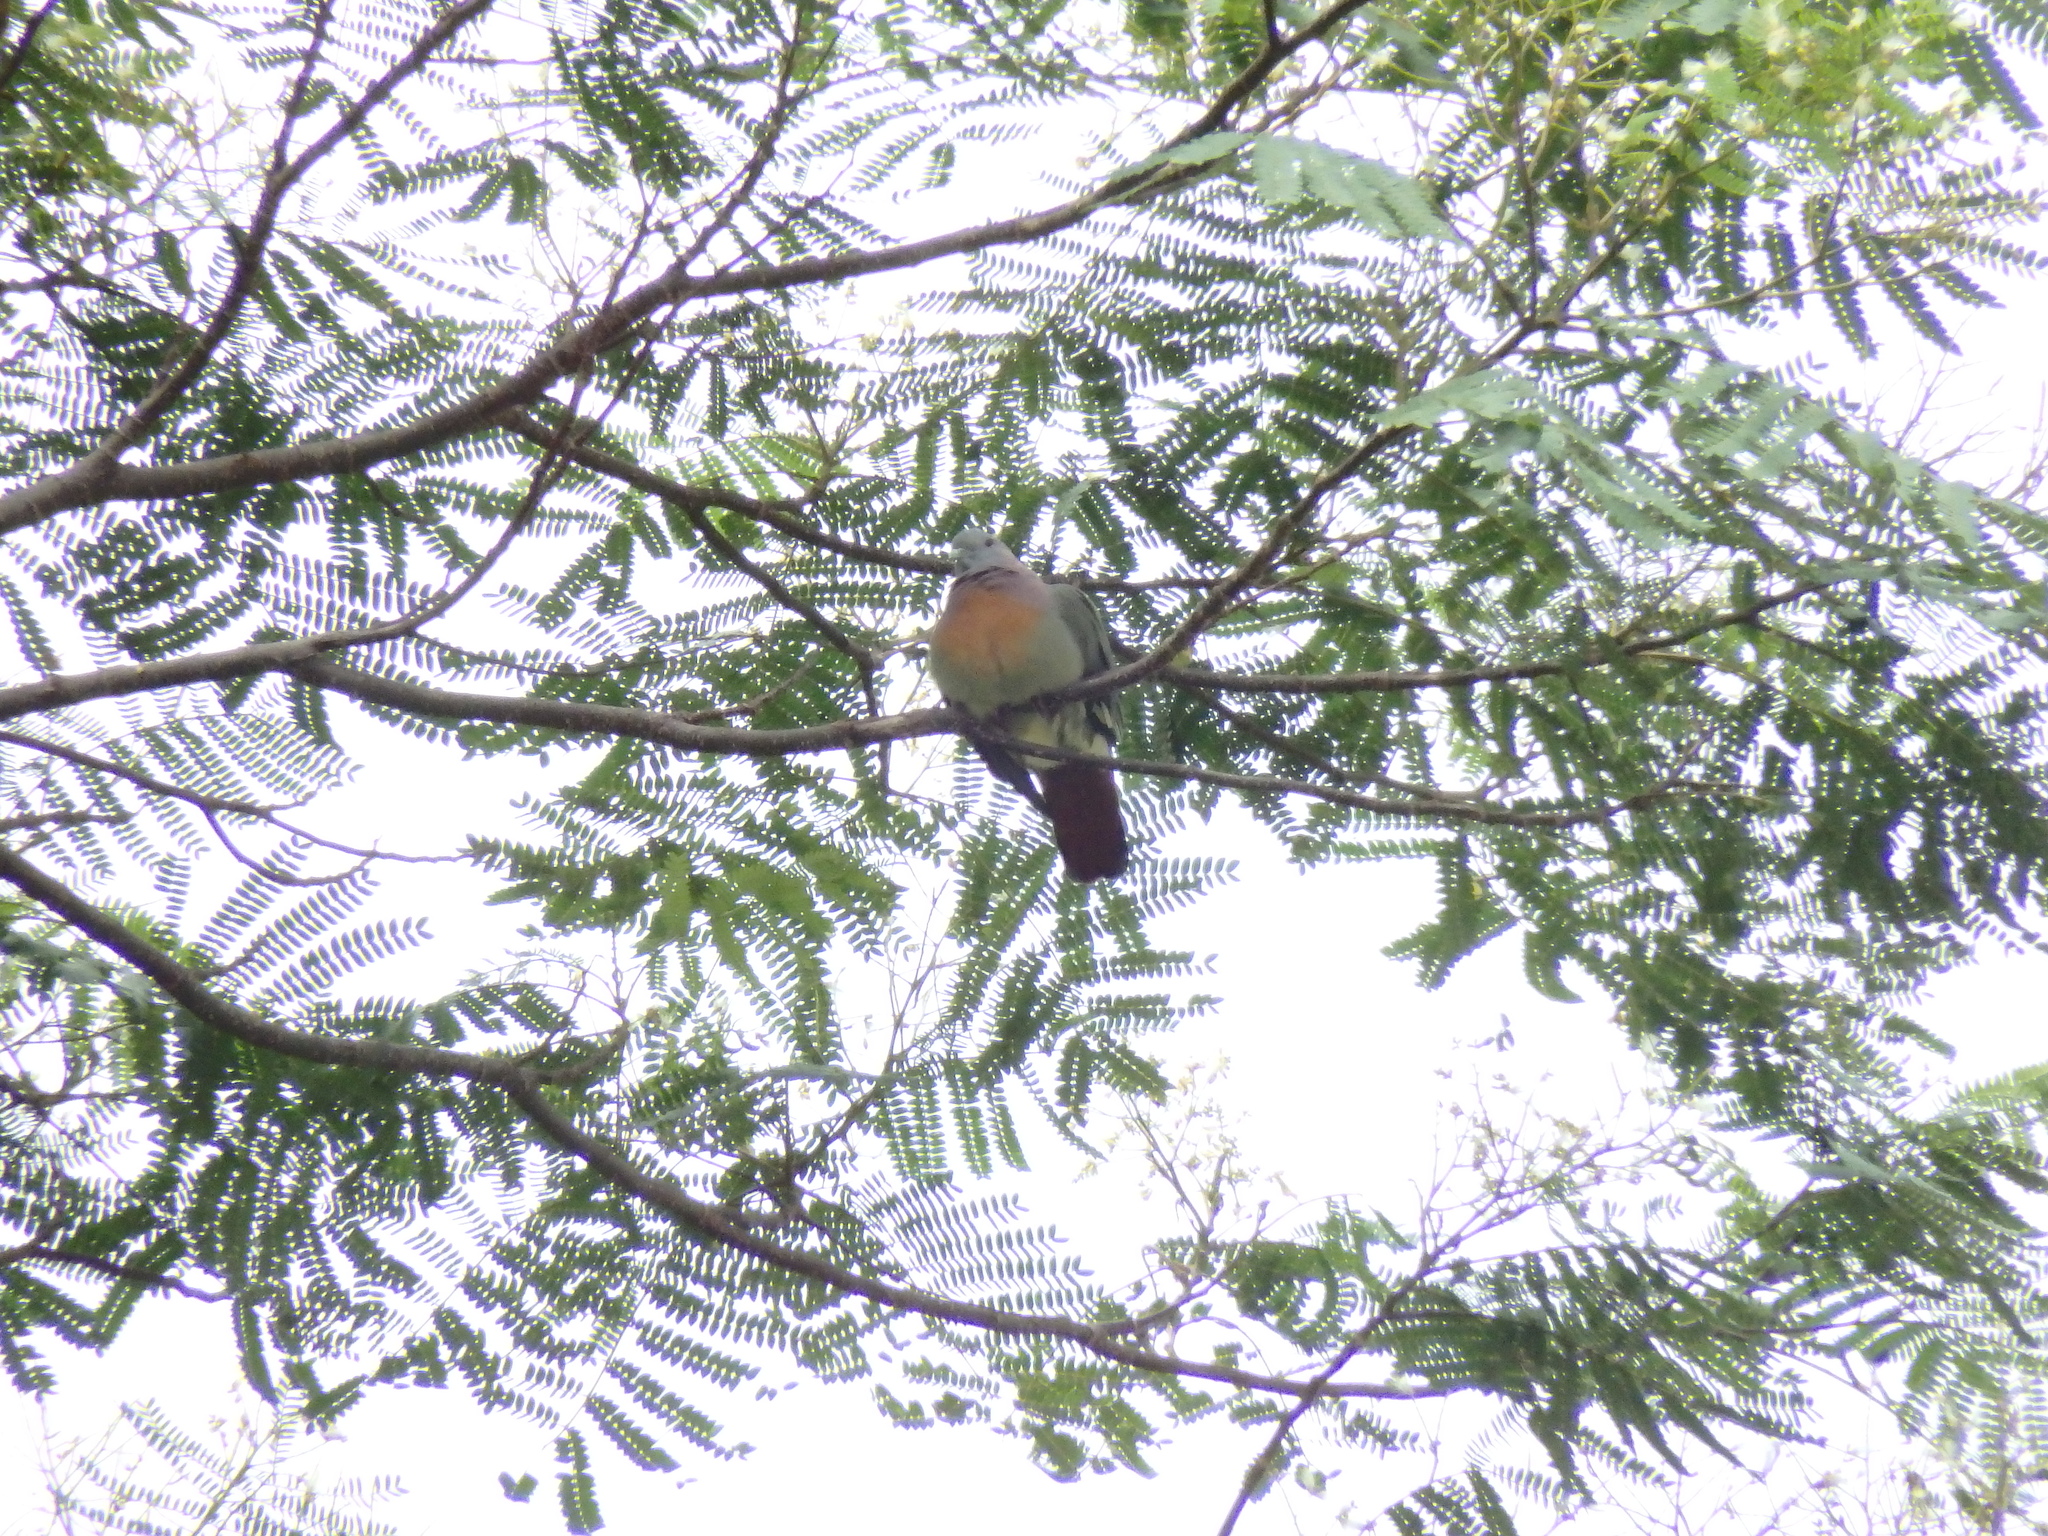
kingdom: Animalia
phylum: Chordata
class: Aves
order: Columbiformes
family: Columbidae
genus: Treron
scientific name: Treron vernans
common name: Pink-necked green pigeon
